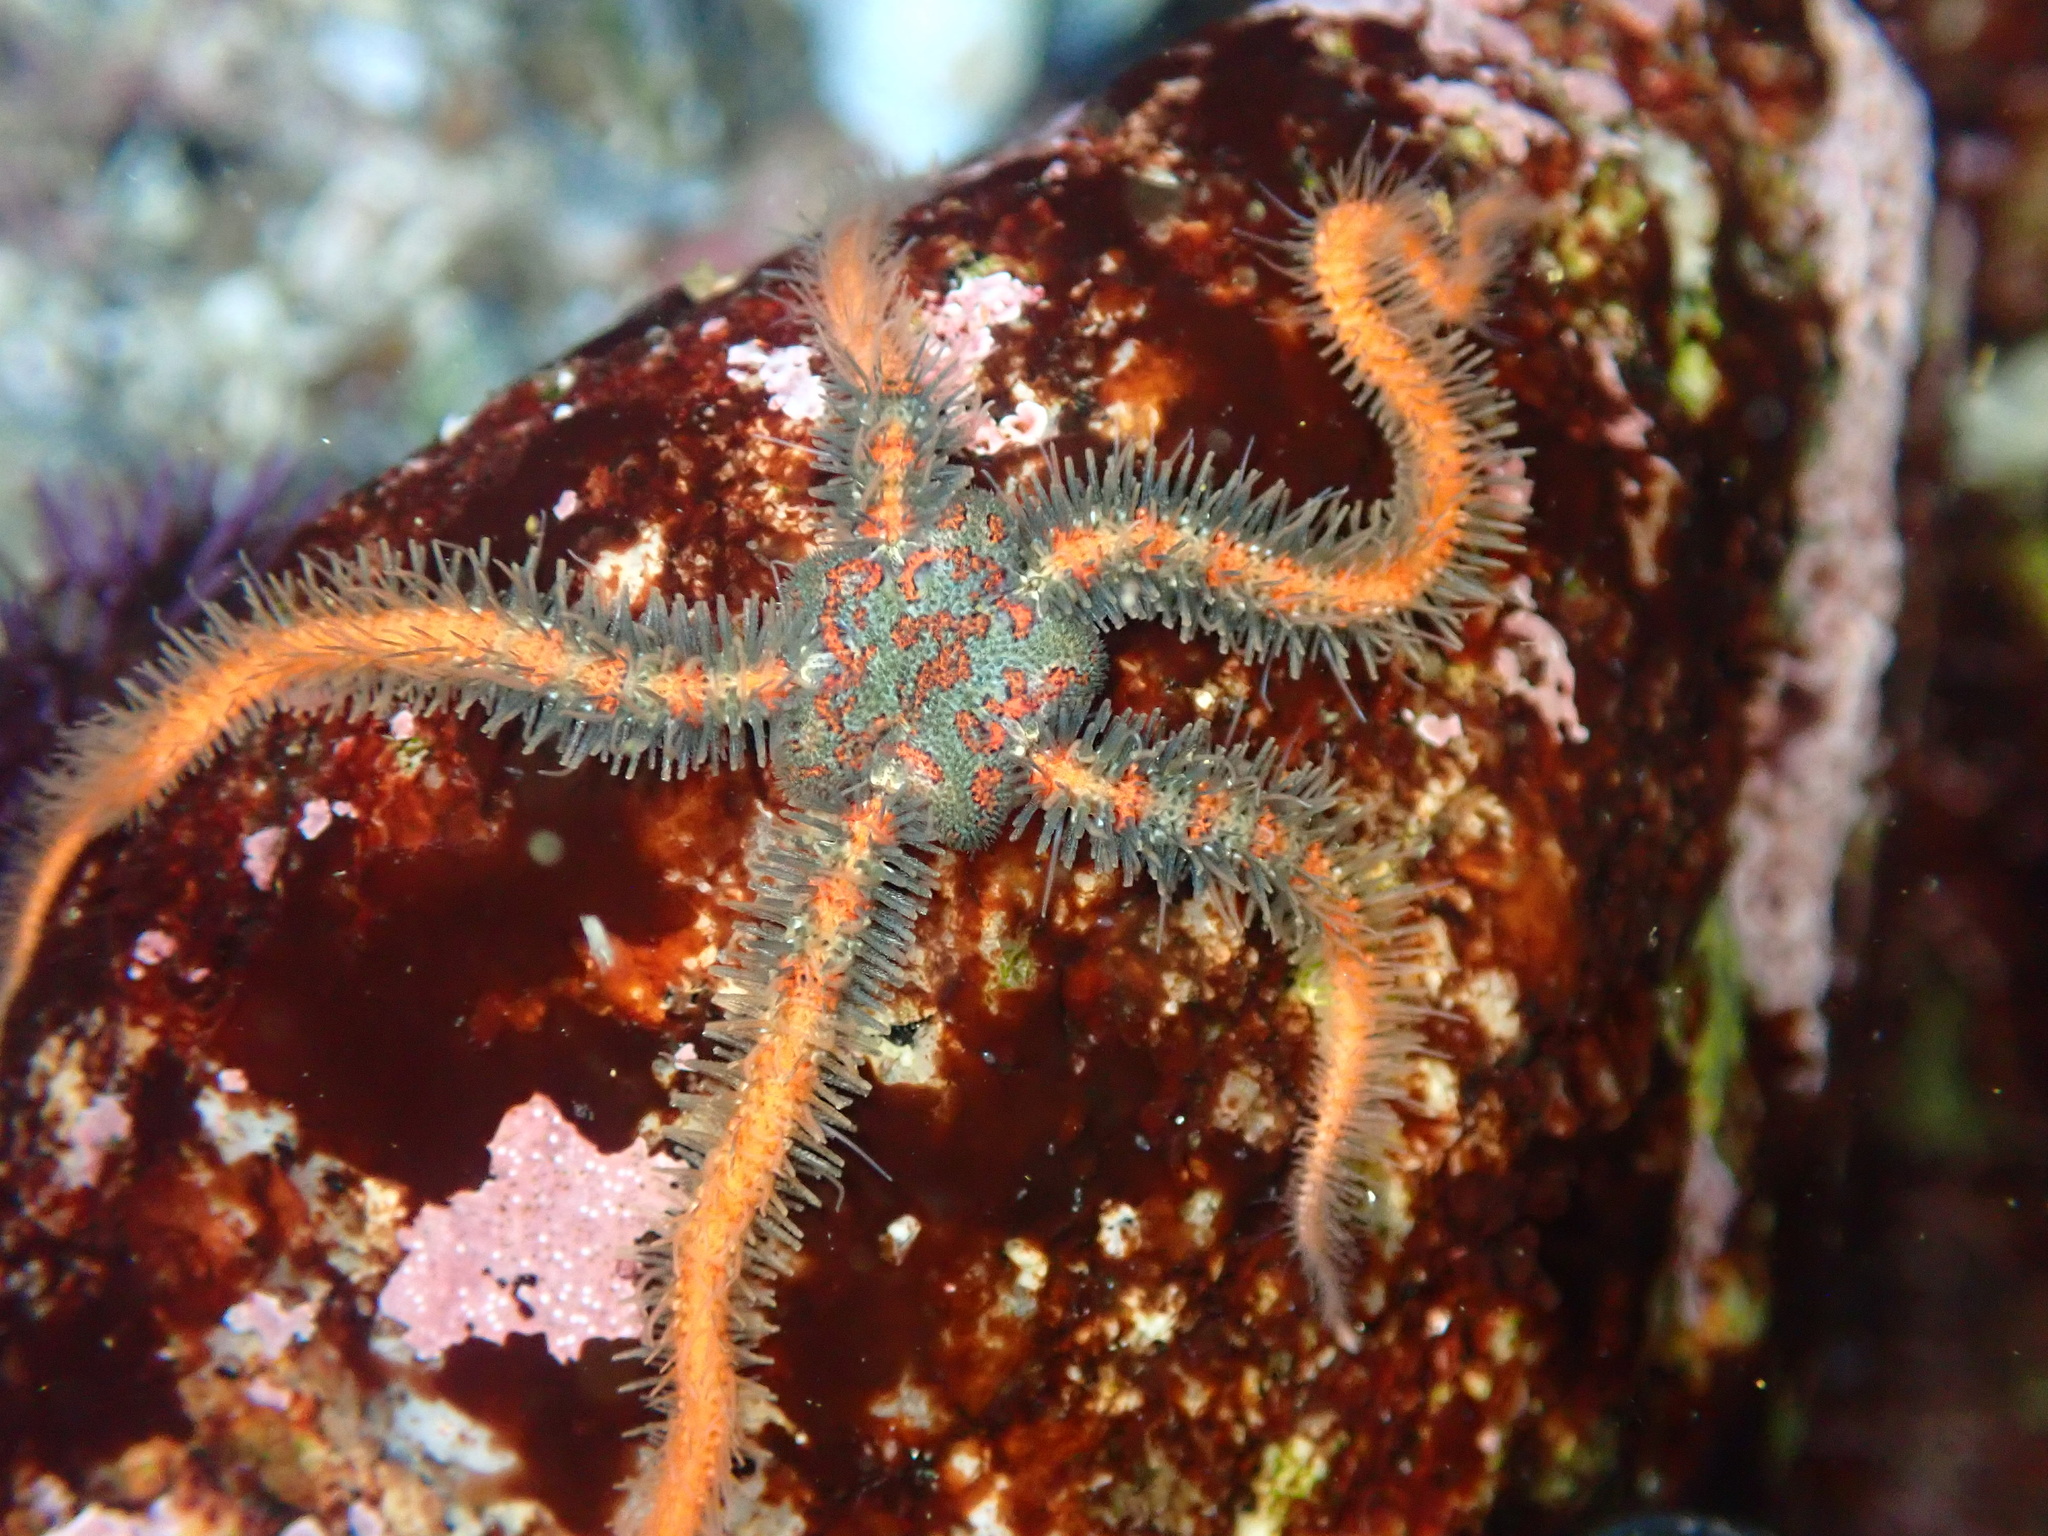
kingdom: Animalia
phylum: Echinodermata
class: Ophiuroidea
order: Amphilepidida
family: Ophiotrichidae
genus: Ophiothrix
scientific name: Ophiothrix spiculata
